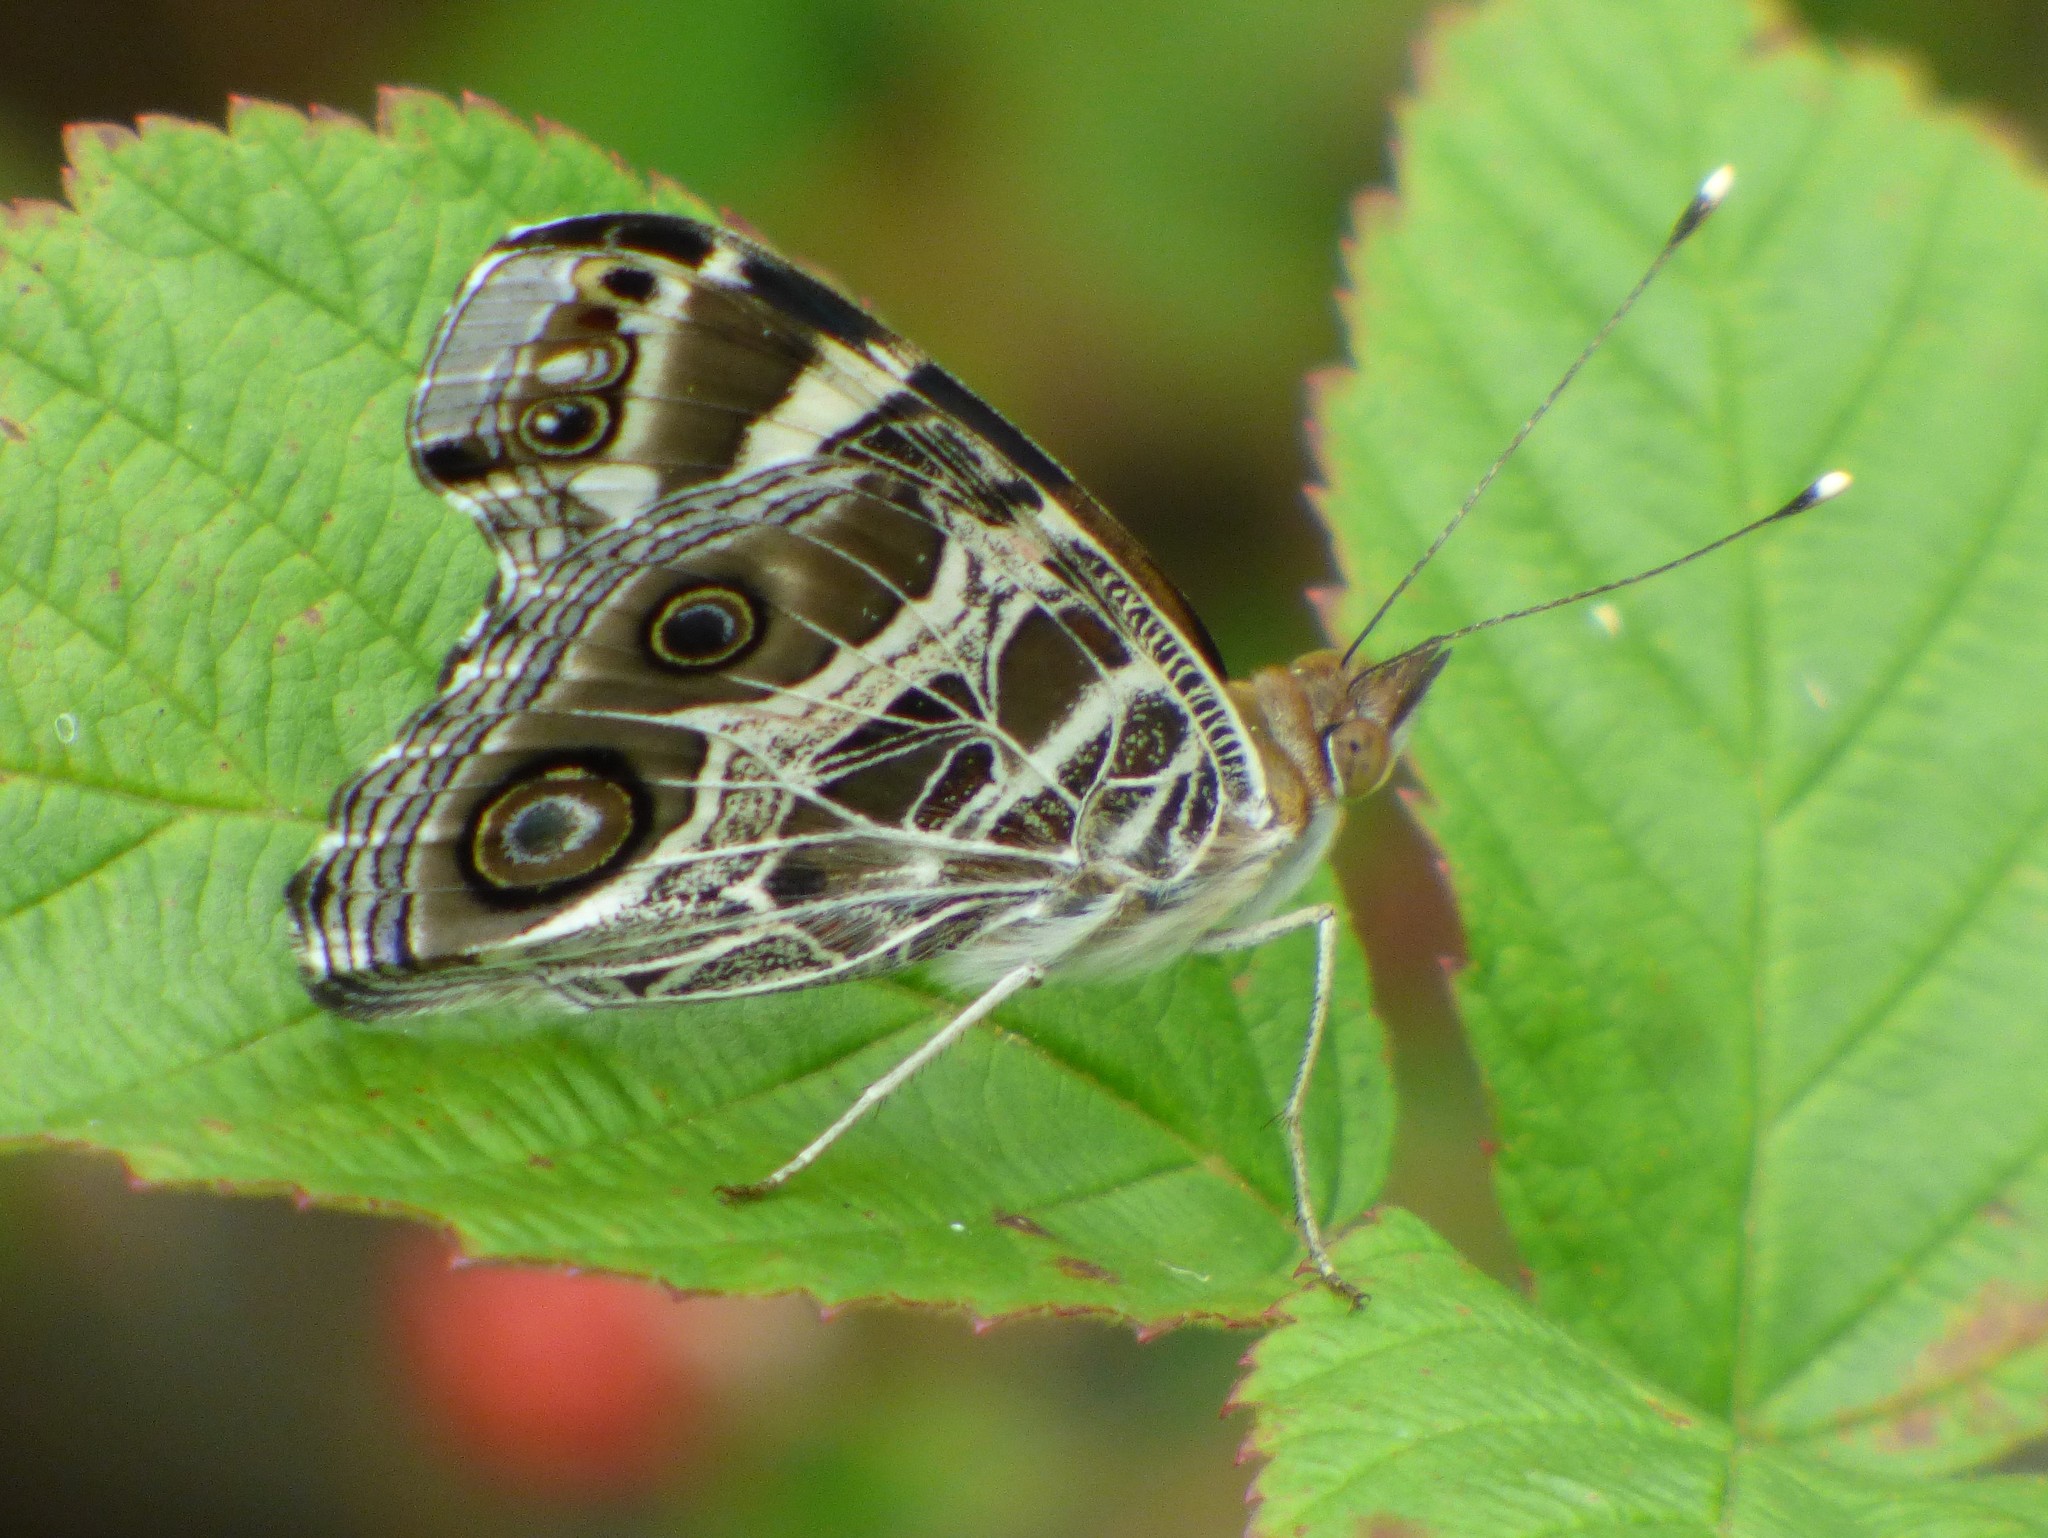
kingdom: Animalia
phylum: Arthropoda
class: Insecta
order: Lepidoptera
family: Nymphalidae
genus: Vanessa
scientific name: Vanessa virginiensis
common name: American lady
